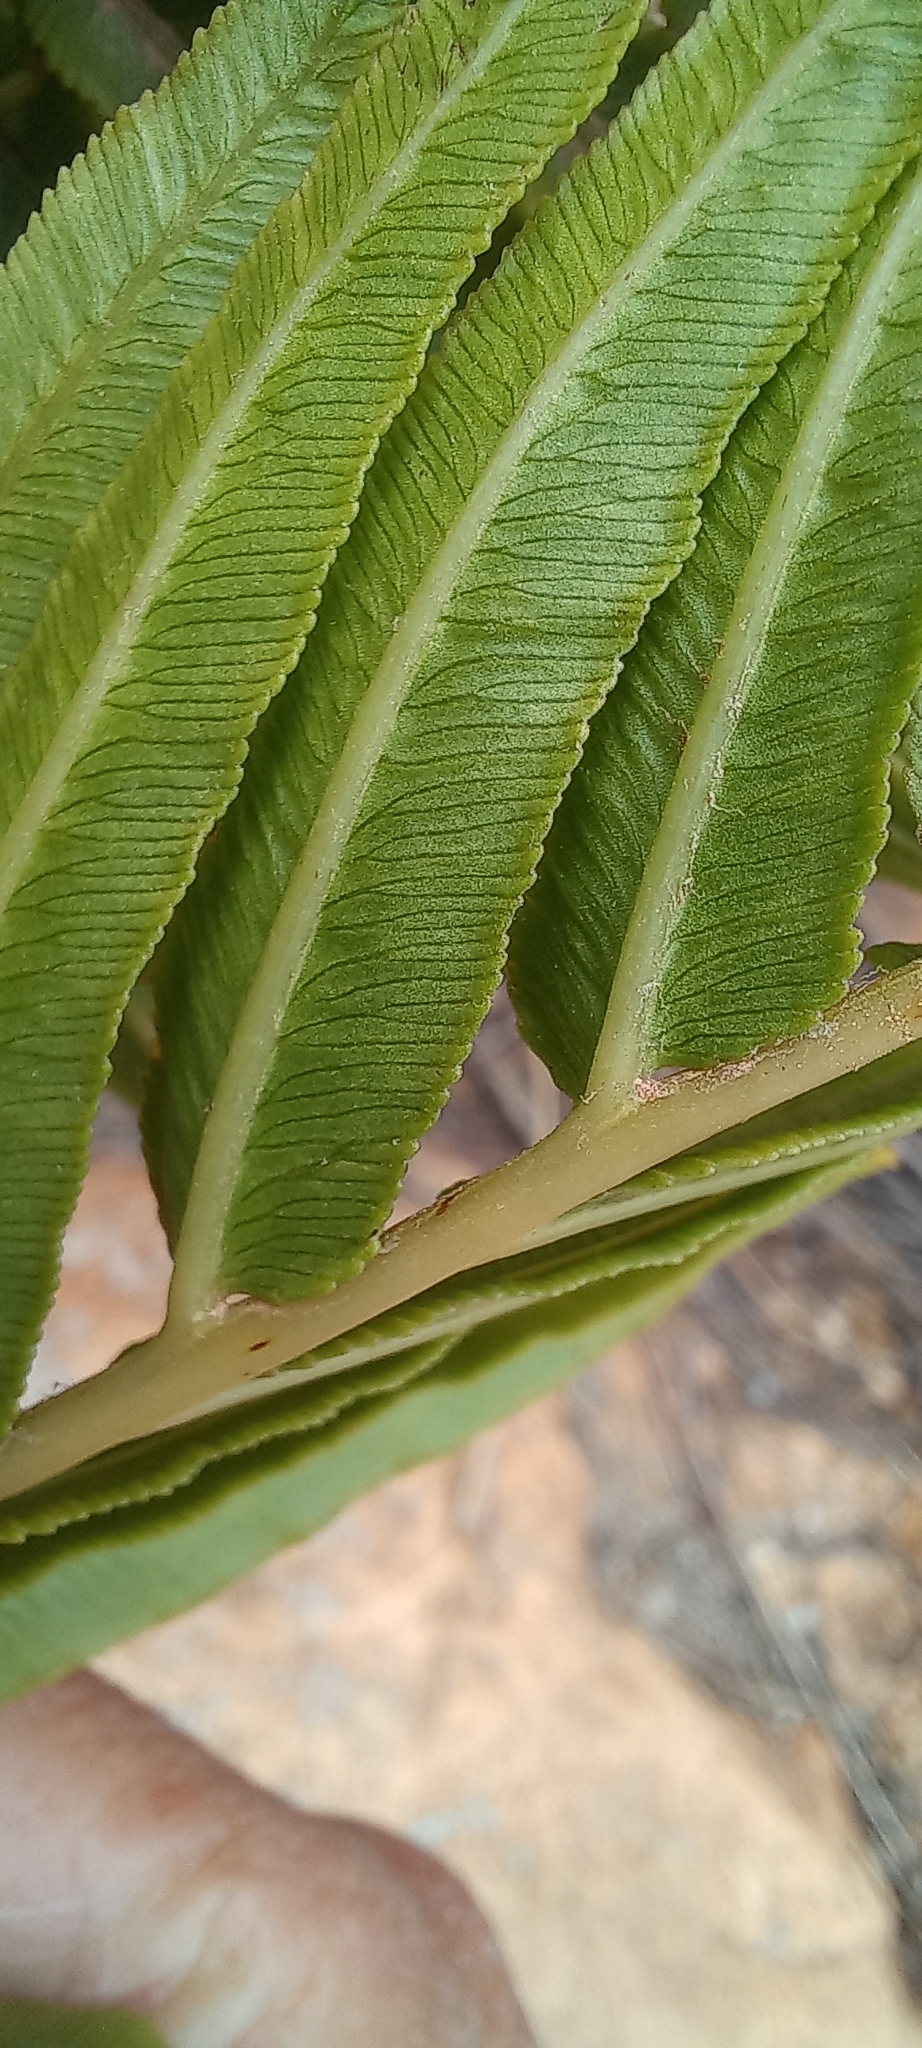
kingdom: Plantae
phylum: Tracheophyta
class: Polypodiopsida
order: Polypodiales
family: Blechnaceae
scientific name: Blechnaceae
